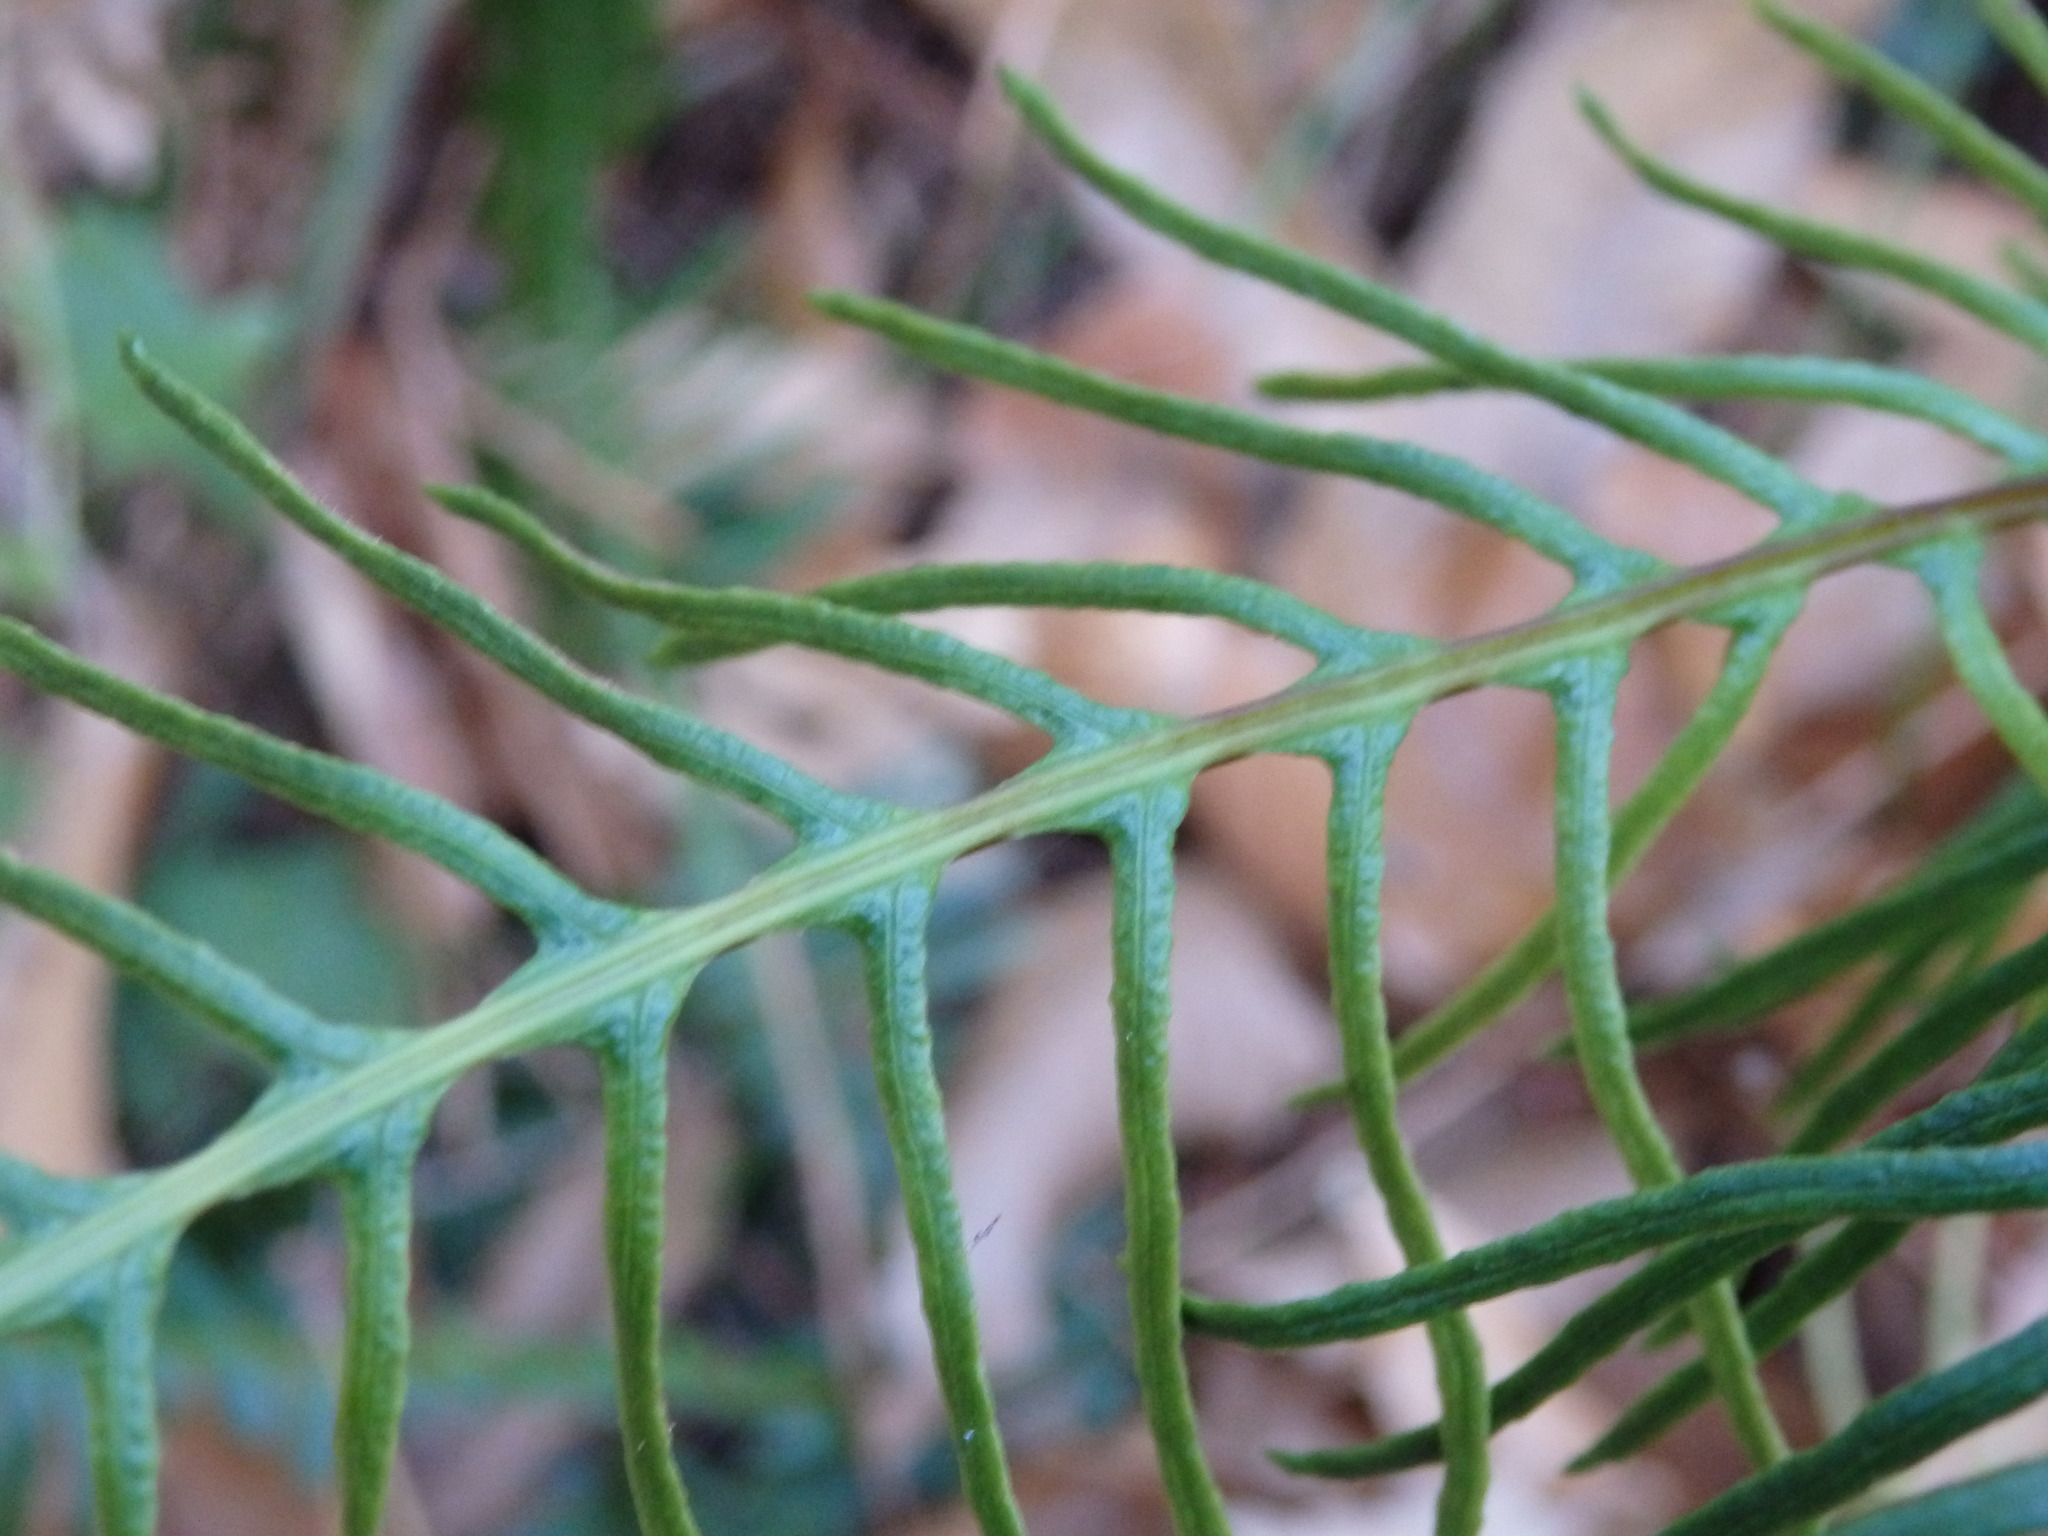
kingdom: Plantae
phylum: Tracheophyta
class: Polypodiopsida
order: Polypodiales
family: Blechnaceae
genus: Struthiopteris
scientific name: Struthiopteris spicant
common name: Deer fern
